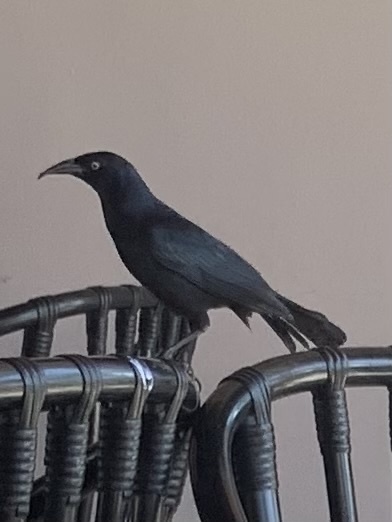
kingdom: Animalia
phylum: Chordata
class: Aves
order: Passeriformes
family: Icteridae
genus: Quiscalus
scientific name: Quiscalus niger
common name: Greater antillean grackle
